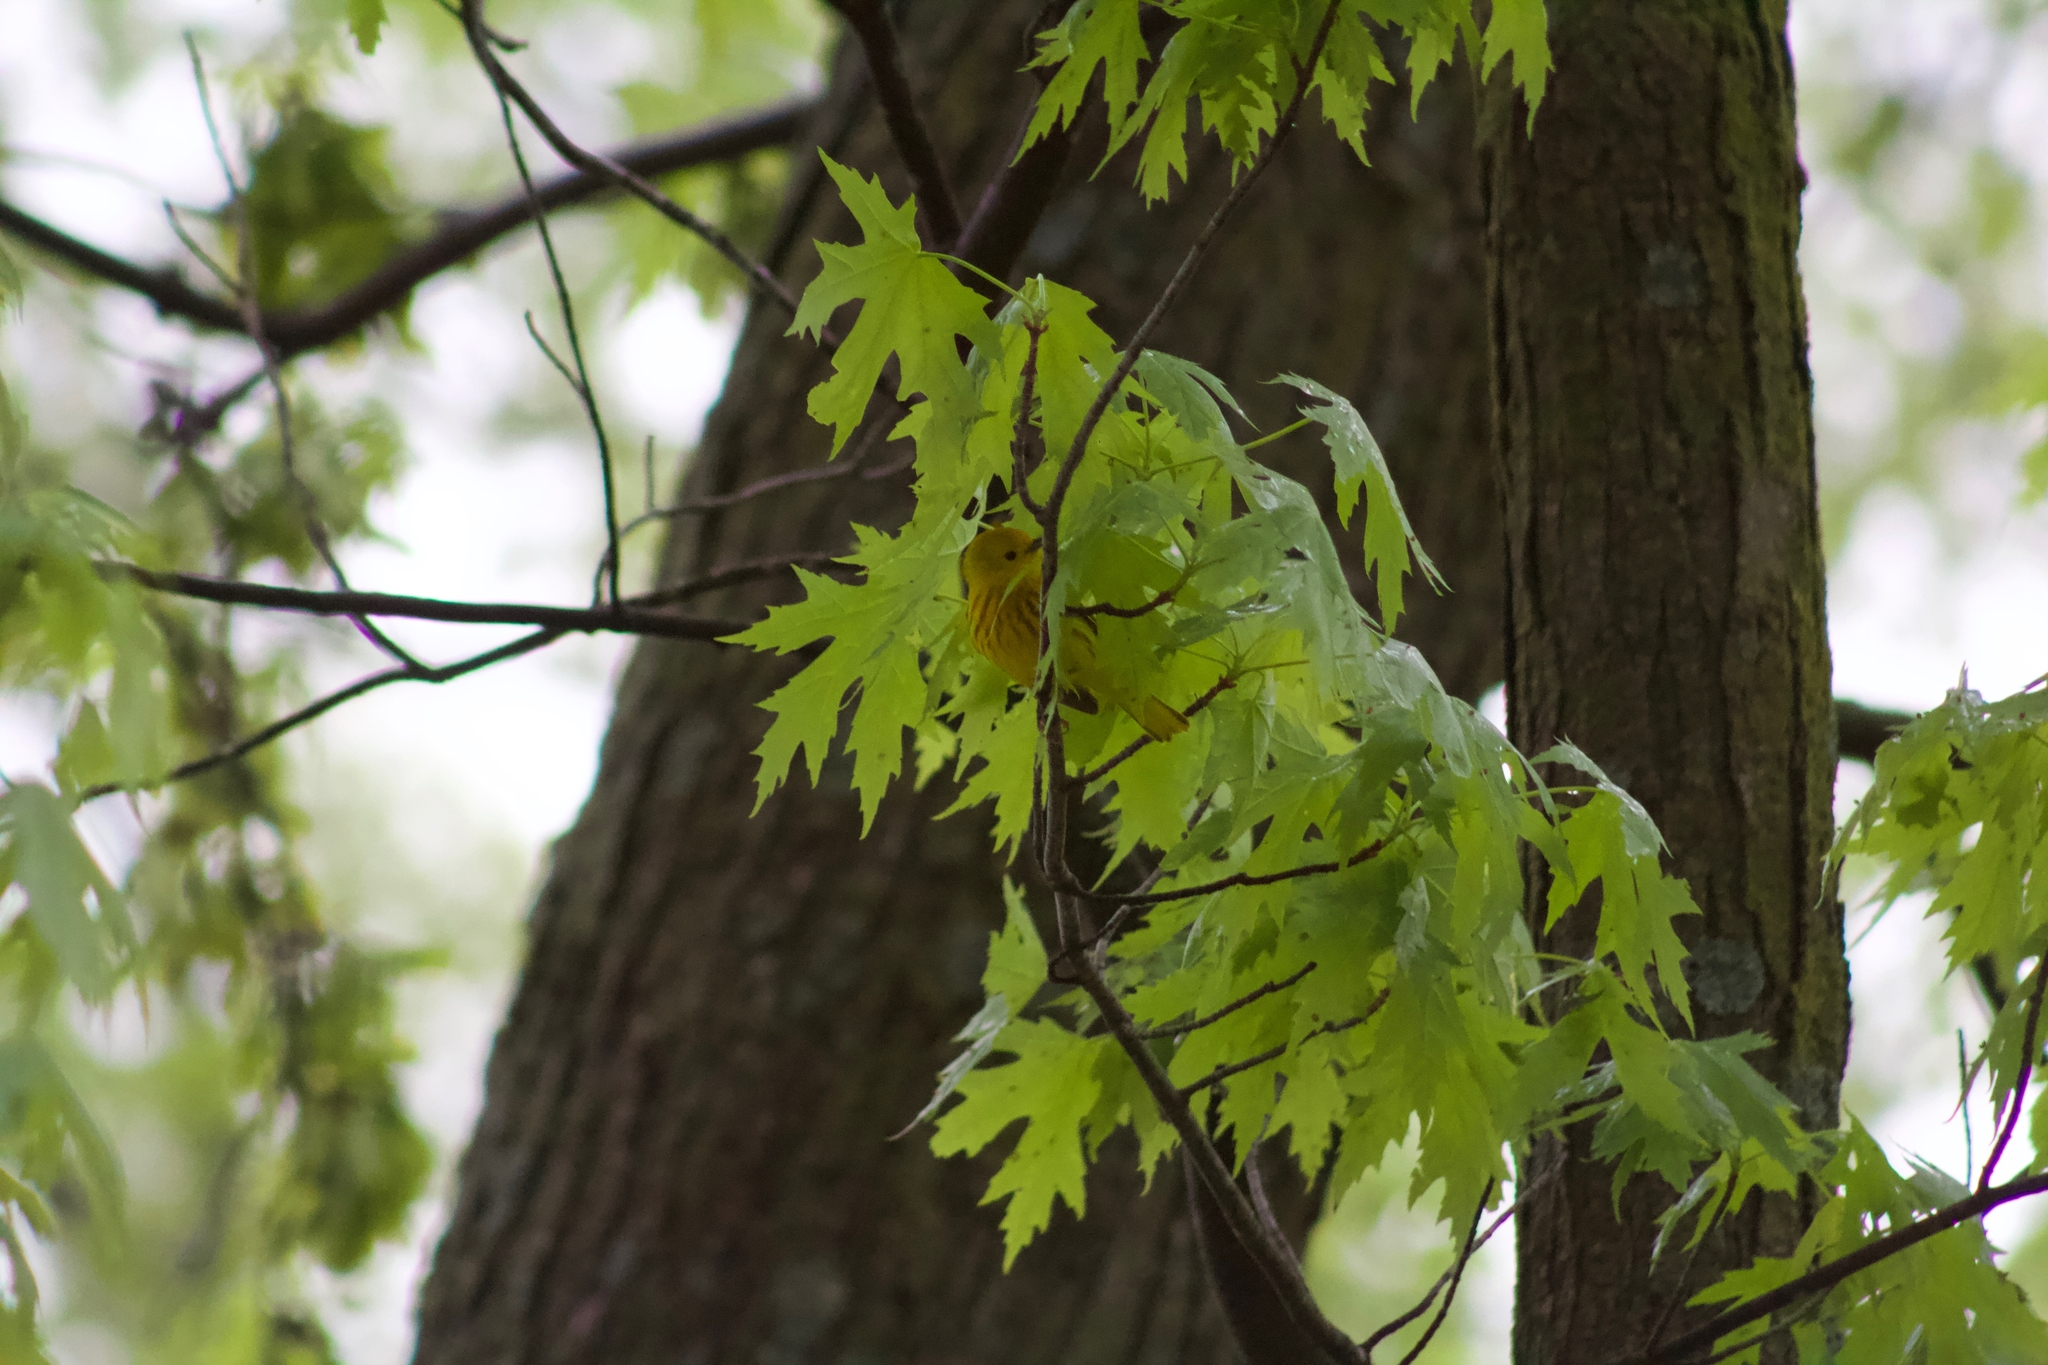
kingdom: Animalia
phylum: Chordata
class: Aves
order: Passeriformes
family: Parulidae
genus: Setophaga
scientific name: Setophaga petechia
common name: Yellow warbler
